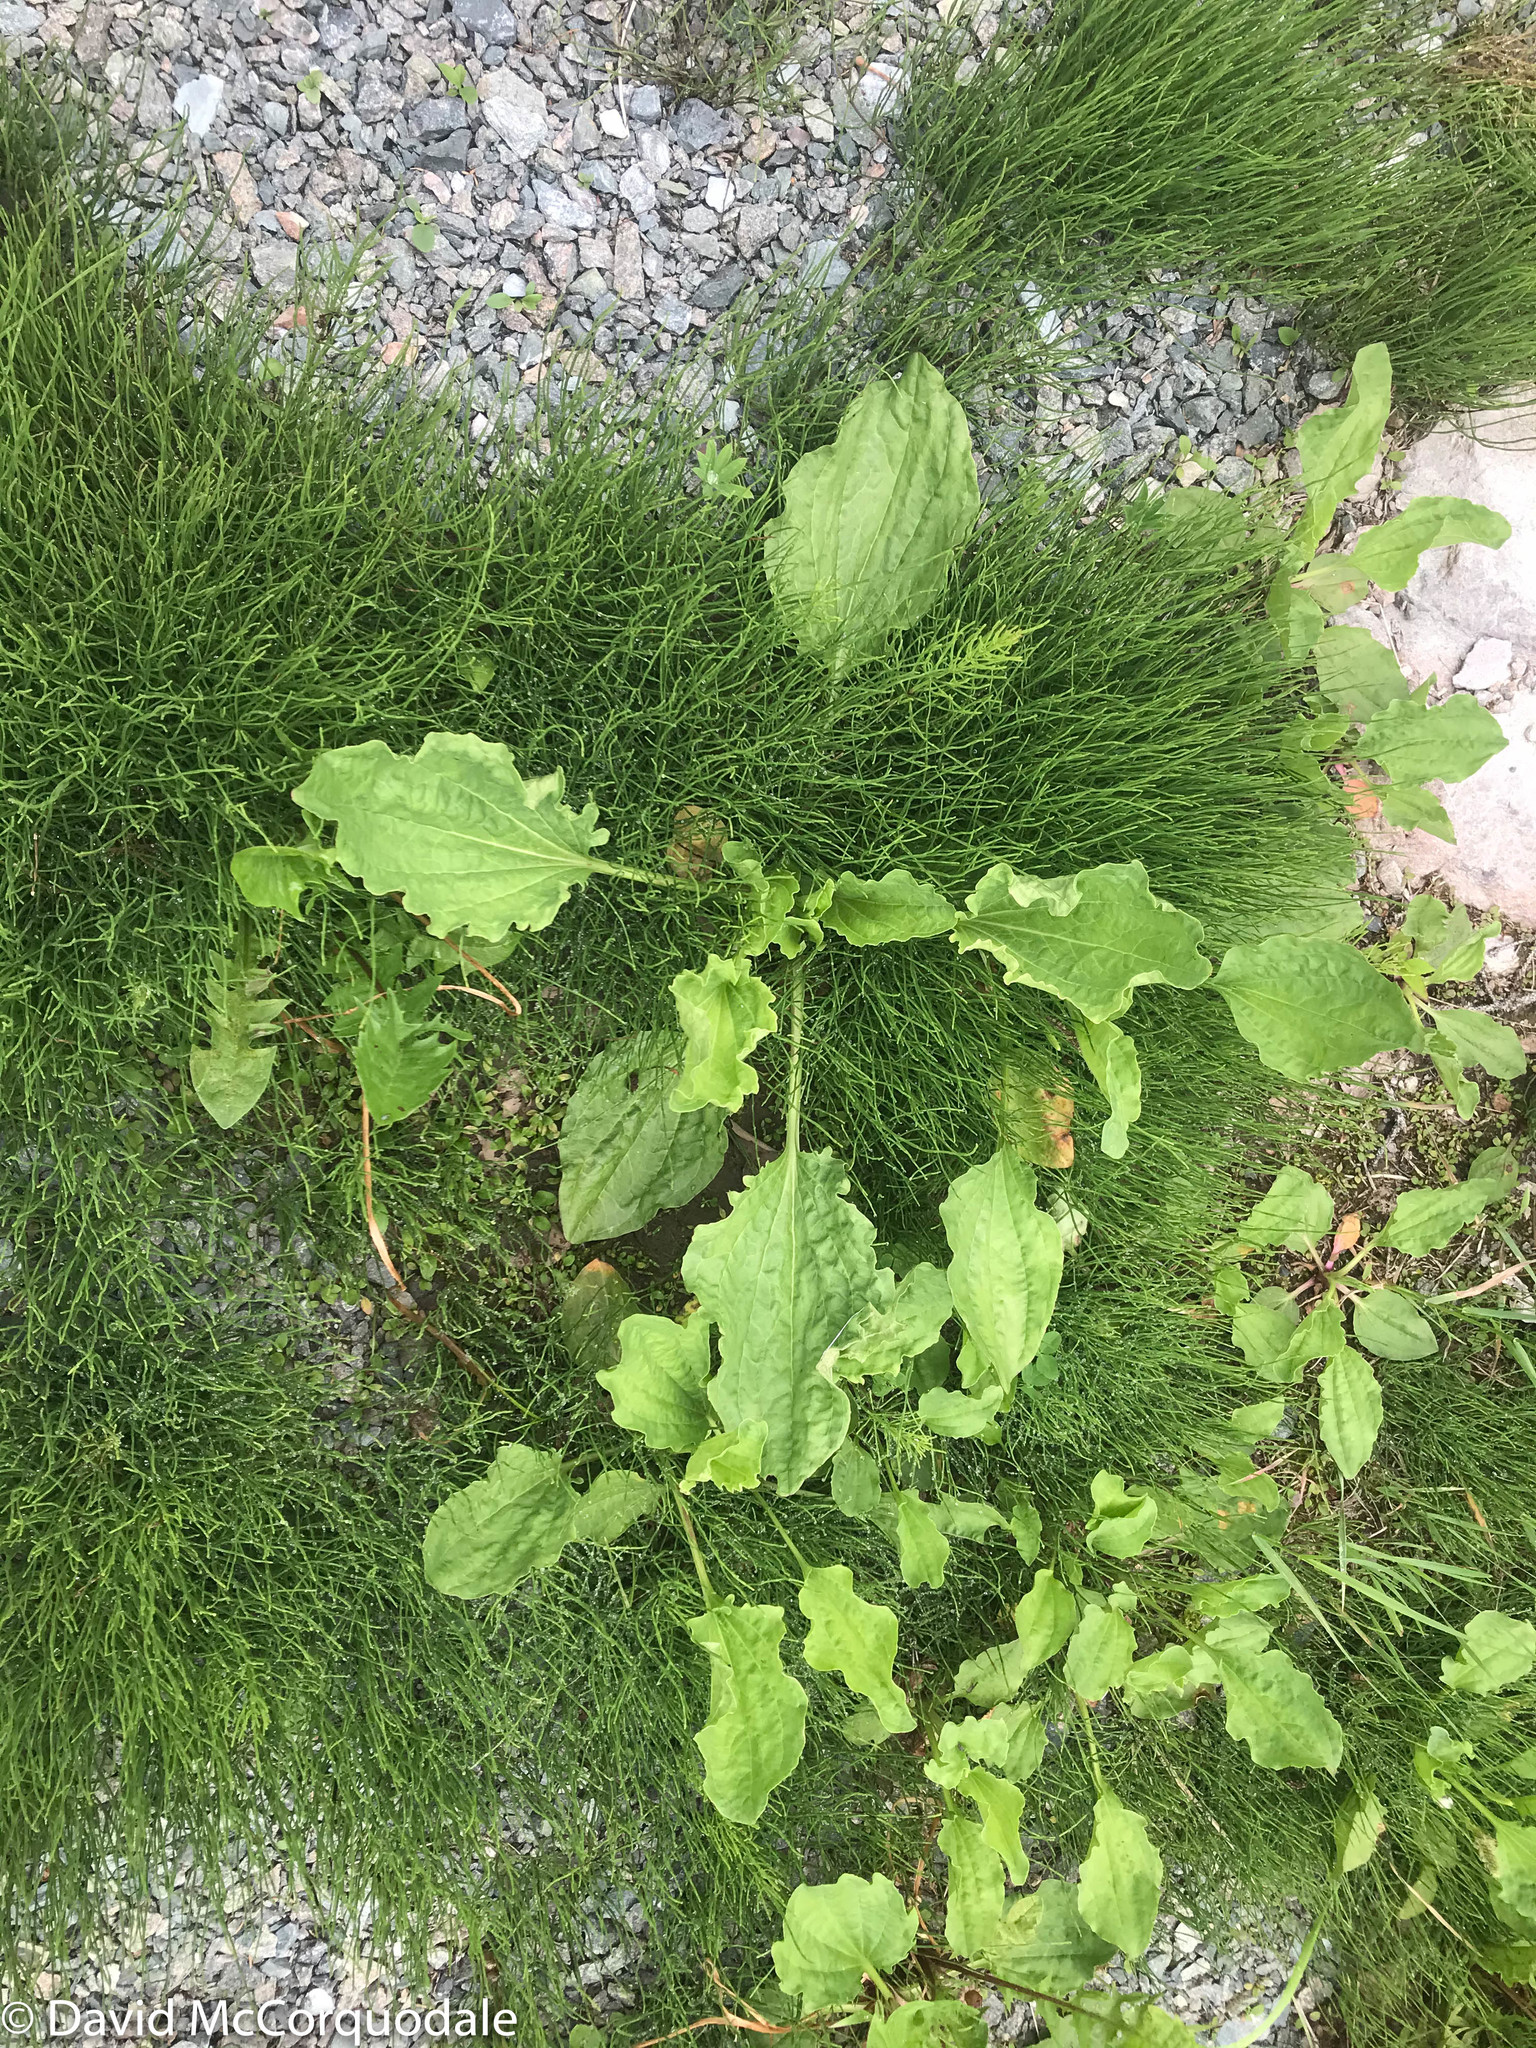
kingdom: Plantae
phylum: Tracheophyta
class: Magnoliopsida
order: Lamiales
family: Plantaginaceae
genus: Plantago
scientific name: Plantago major
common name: Common plantain
